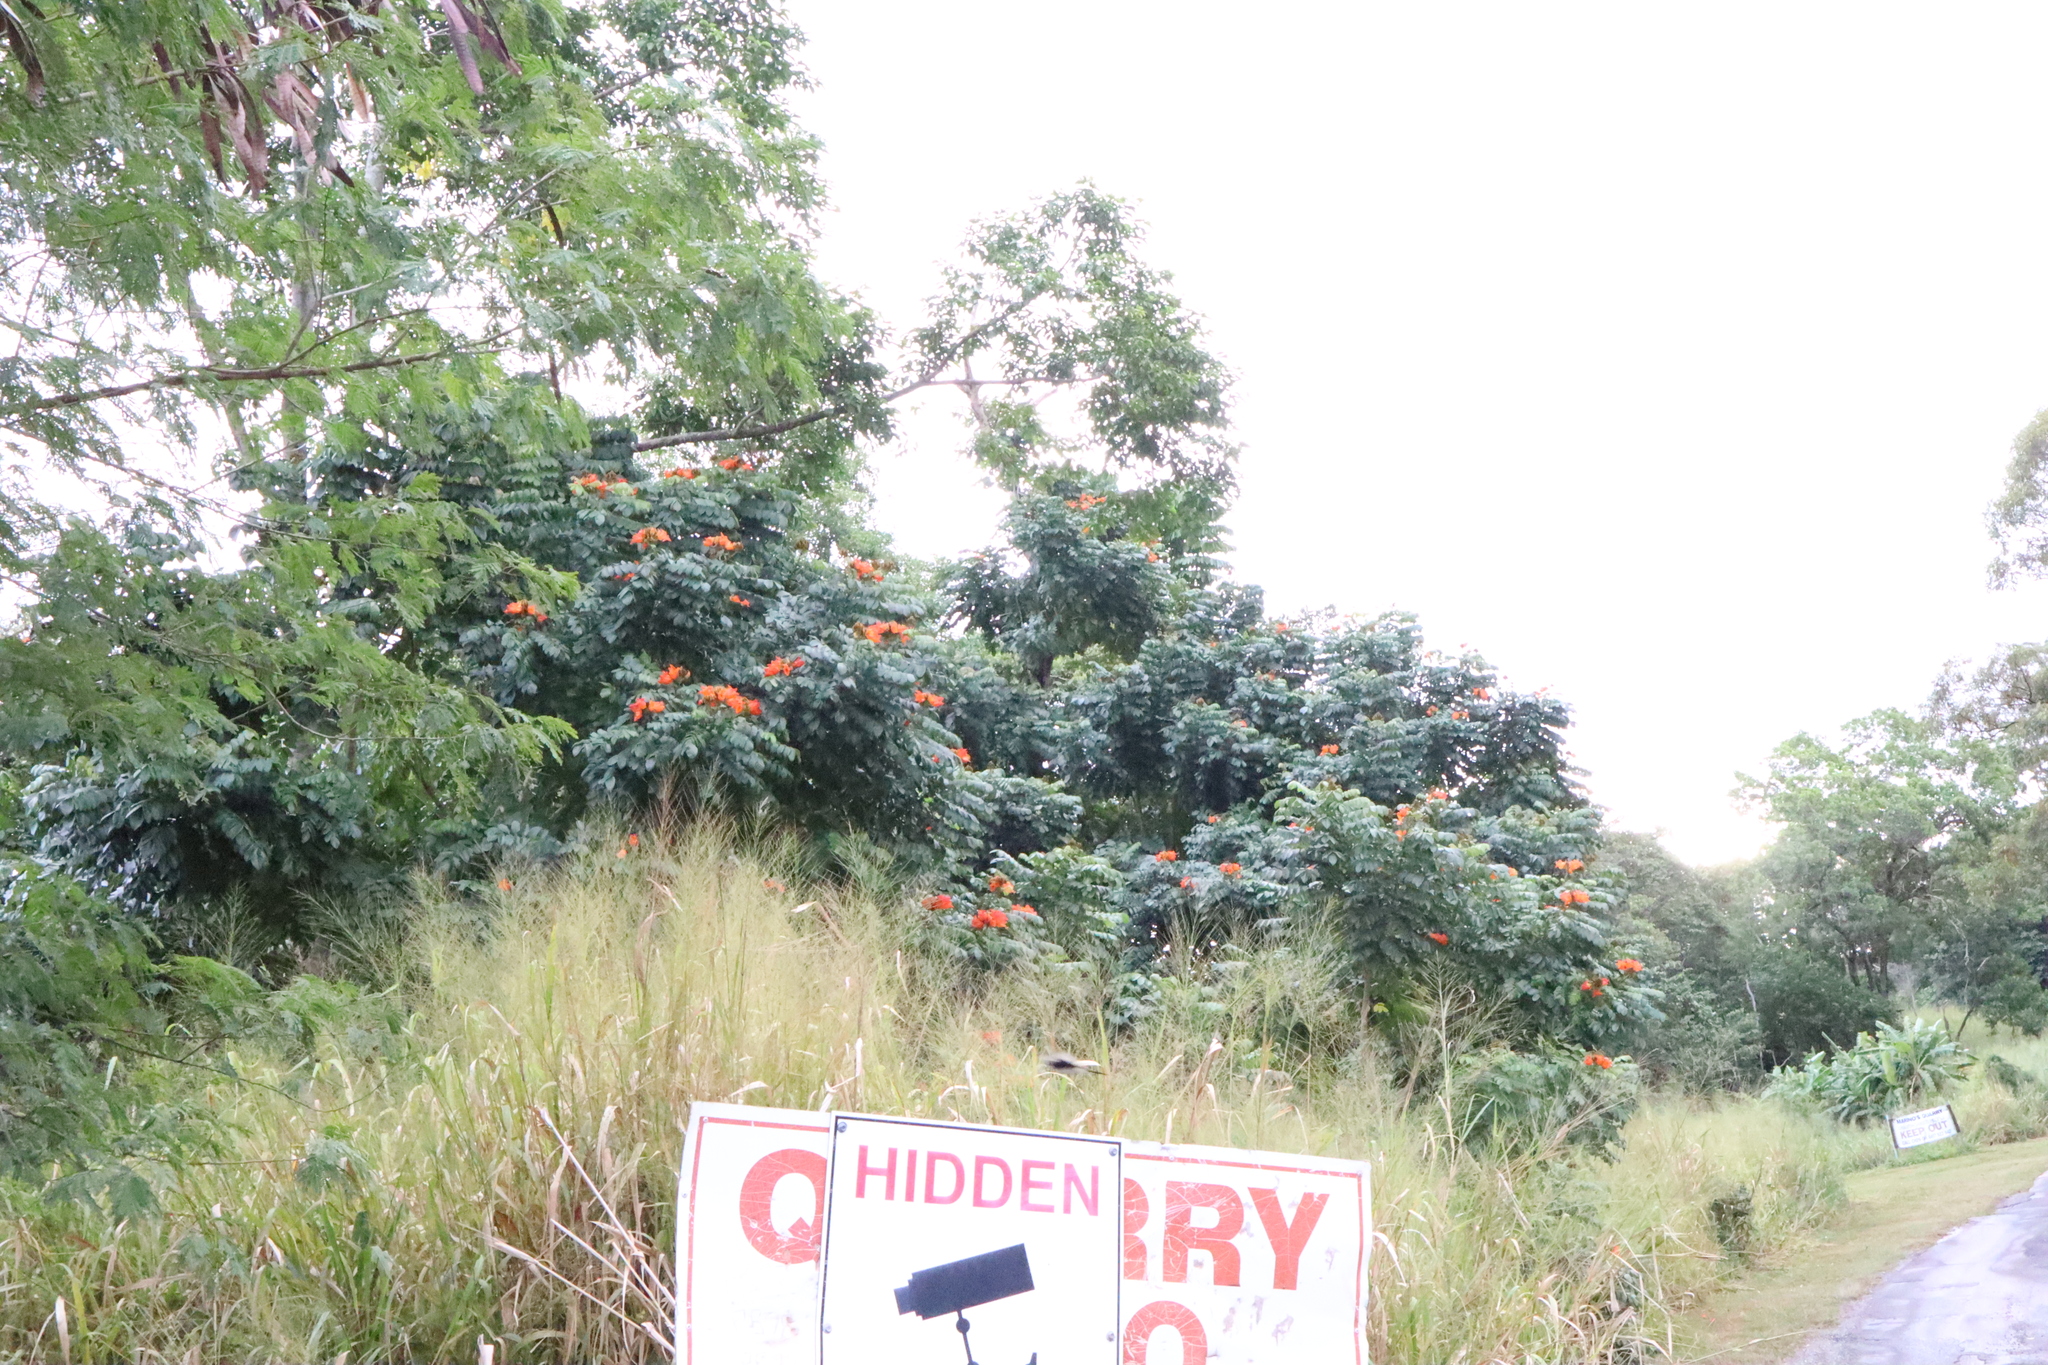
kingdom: Plantae
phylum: Tracheophyta
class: Magnoliopsida
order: Lamiales
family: Bignoniaceae
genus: Spathodea
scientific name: Spathodea campanulata
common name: African tuliptree
